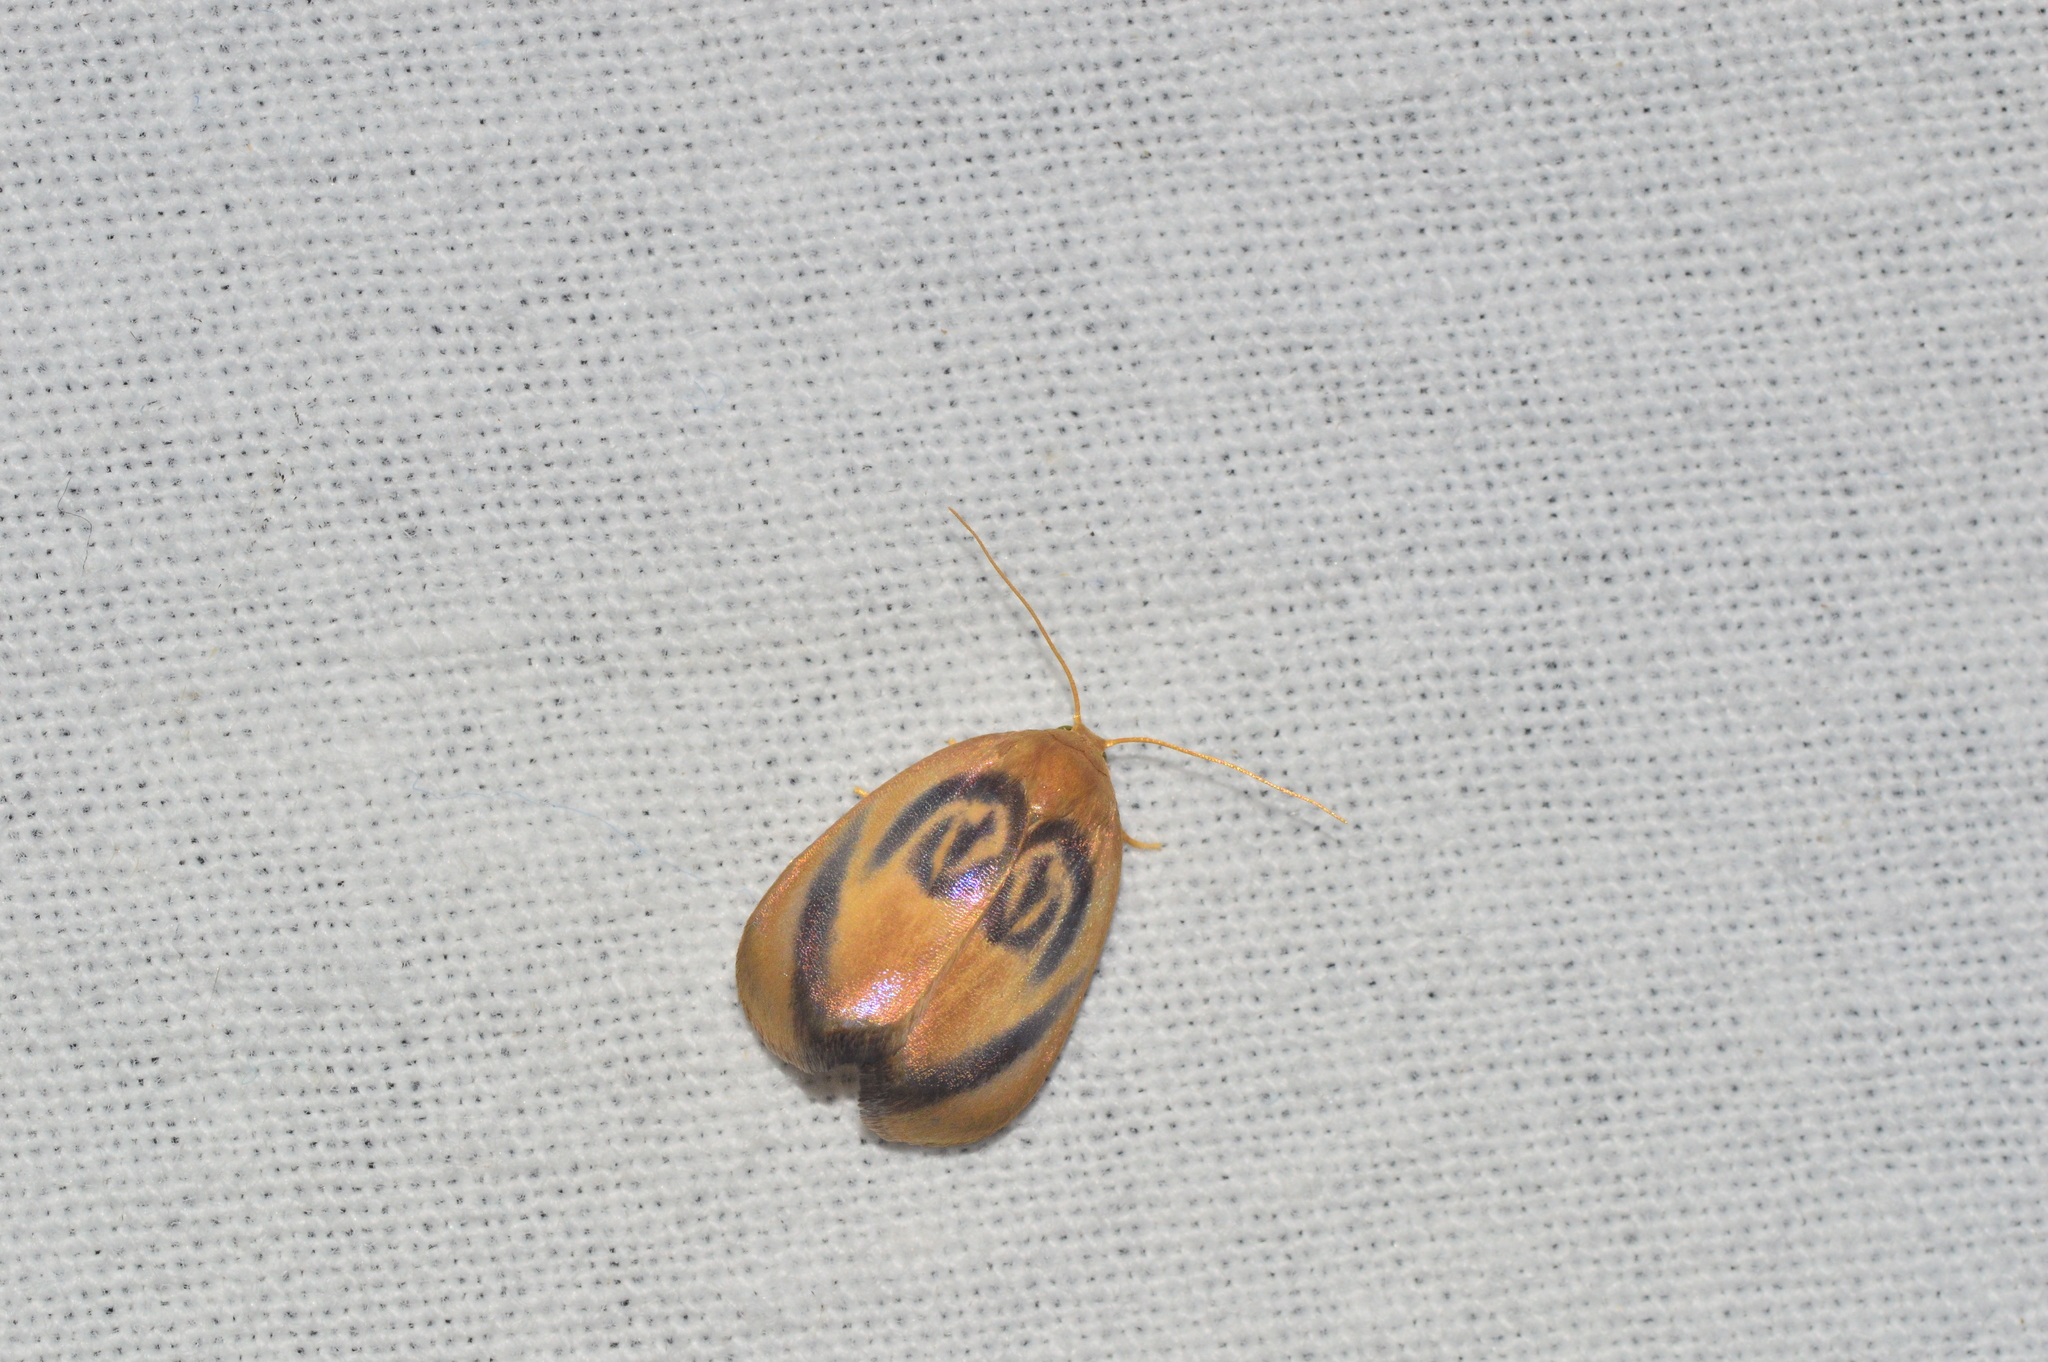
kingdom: Animalia
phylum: Arthropoda
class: Insecta
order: Lepidoptera
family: Erebidae
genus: Trischalis
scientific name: Trischalis subaurana
